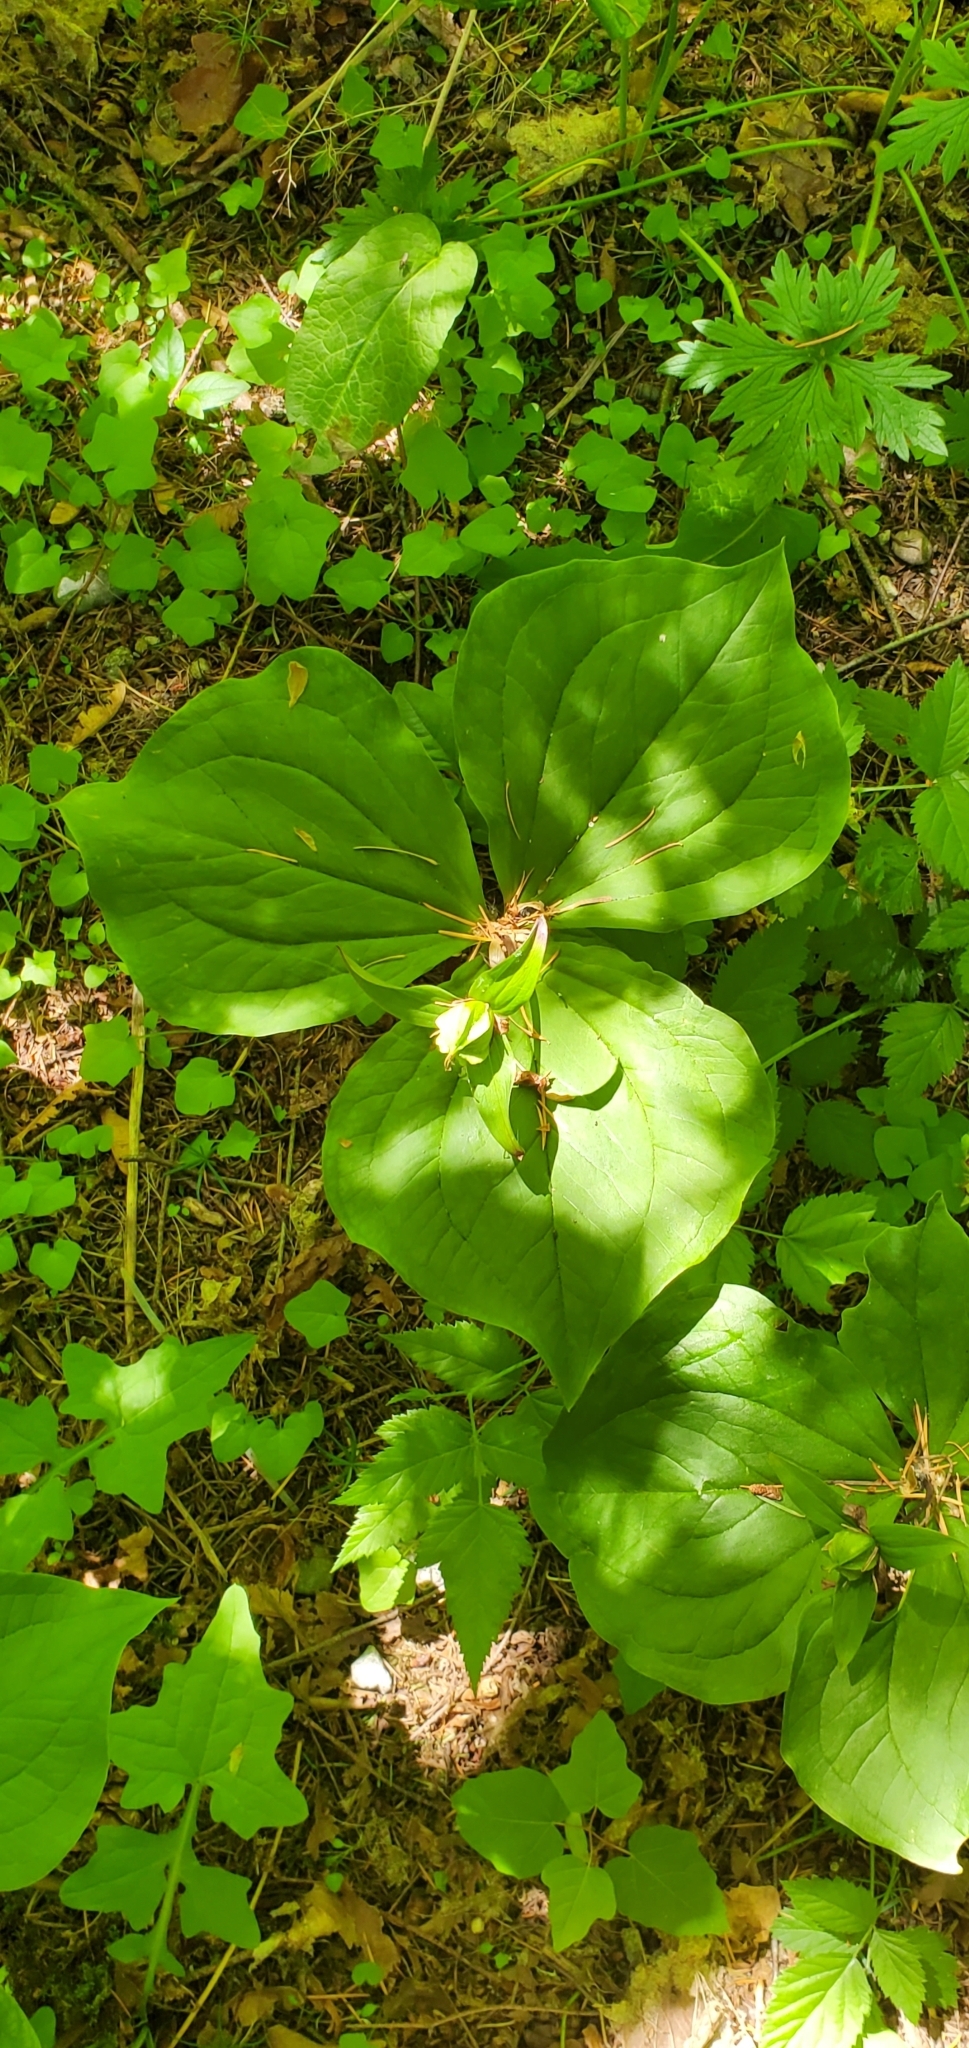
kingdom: Plantae
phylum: Tracheophyta
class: Liliopsida
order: Liliales
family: Melanthiaceae
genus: Trillium
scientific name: Trillium ovatum
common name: Pacific trillium
